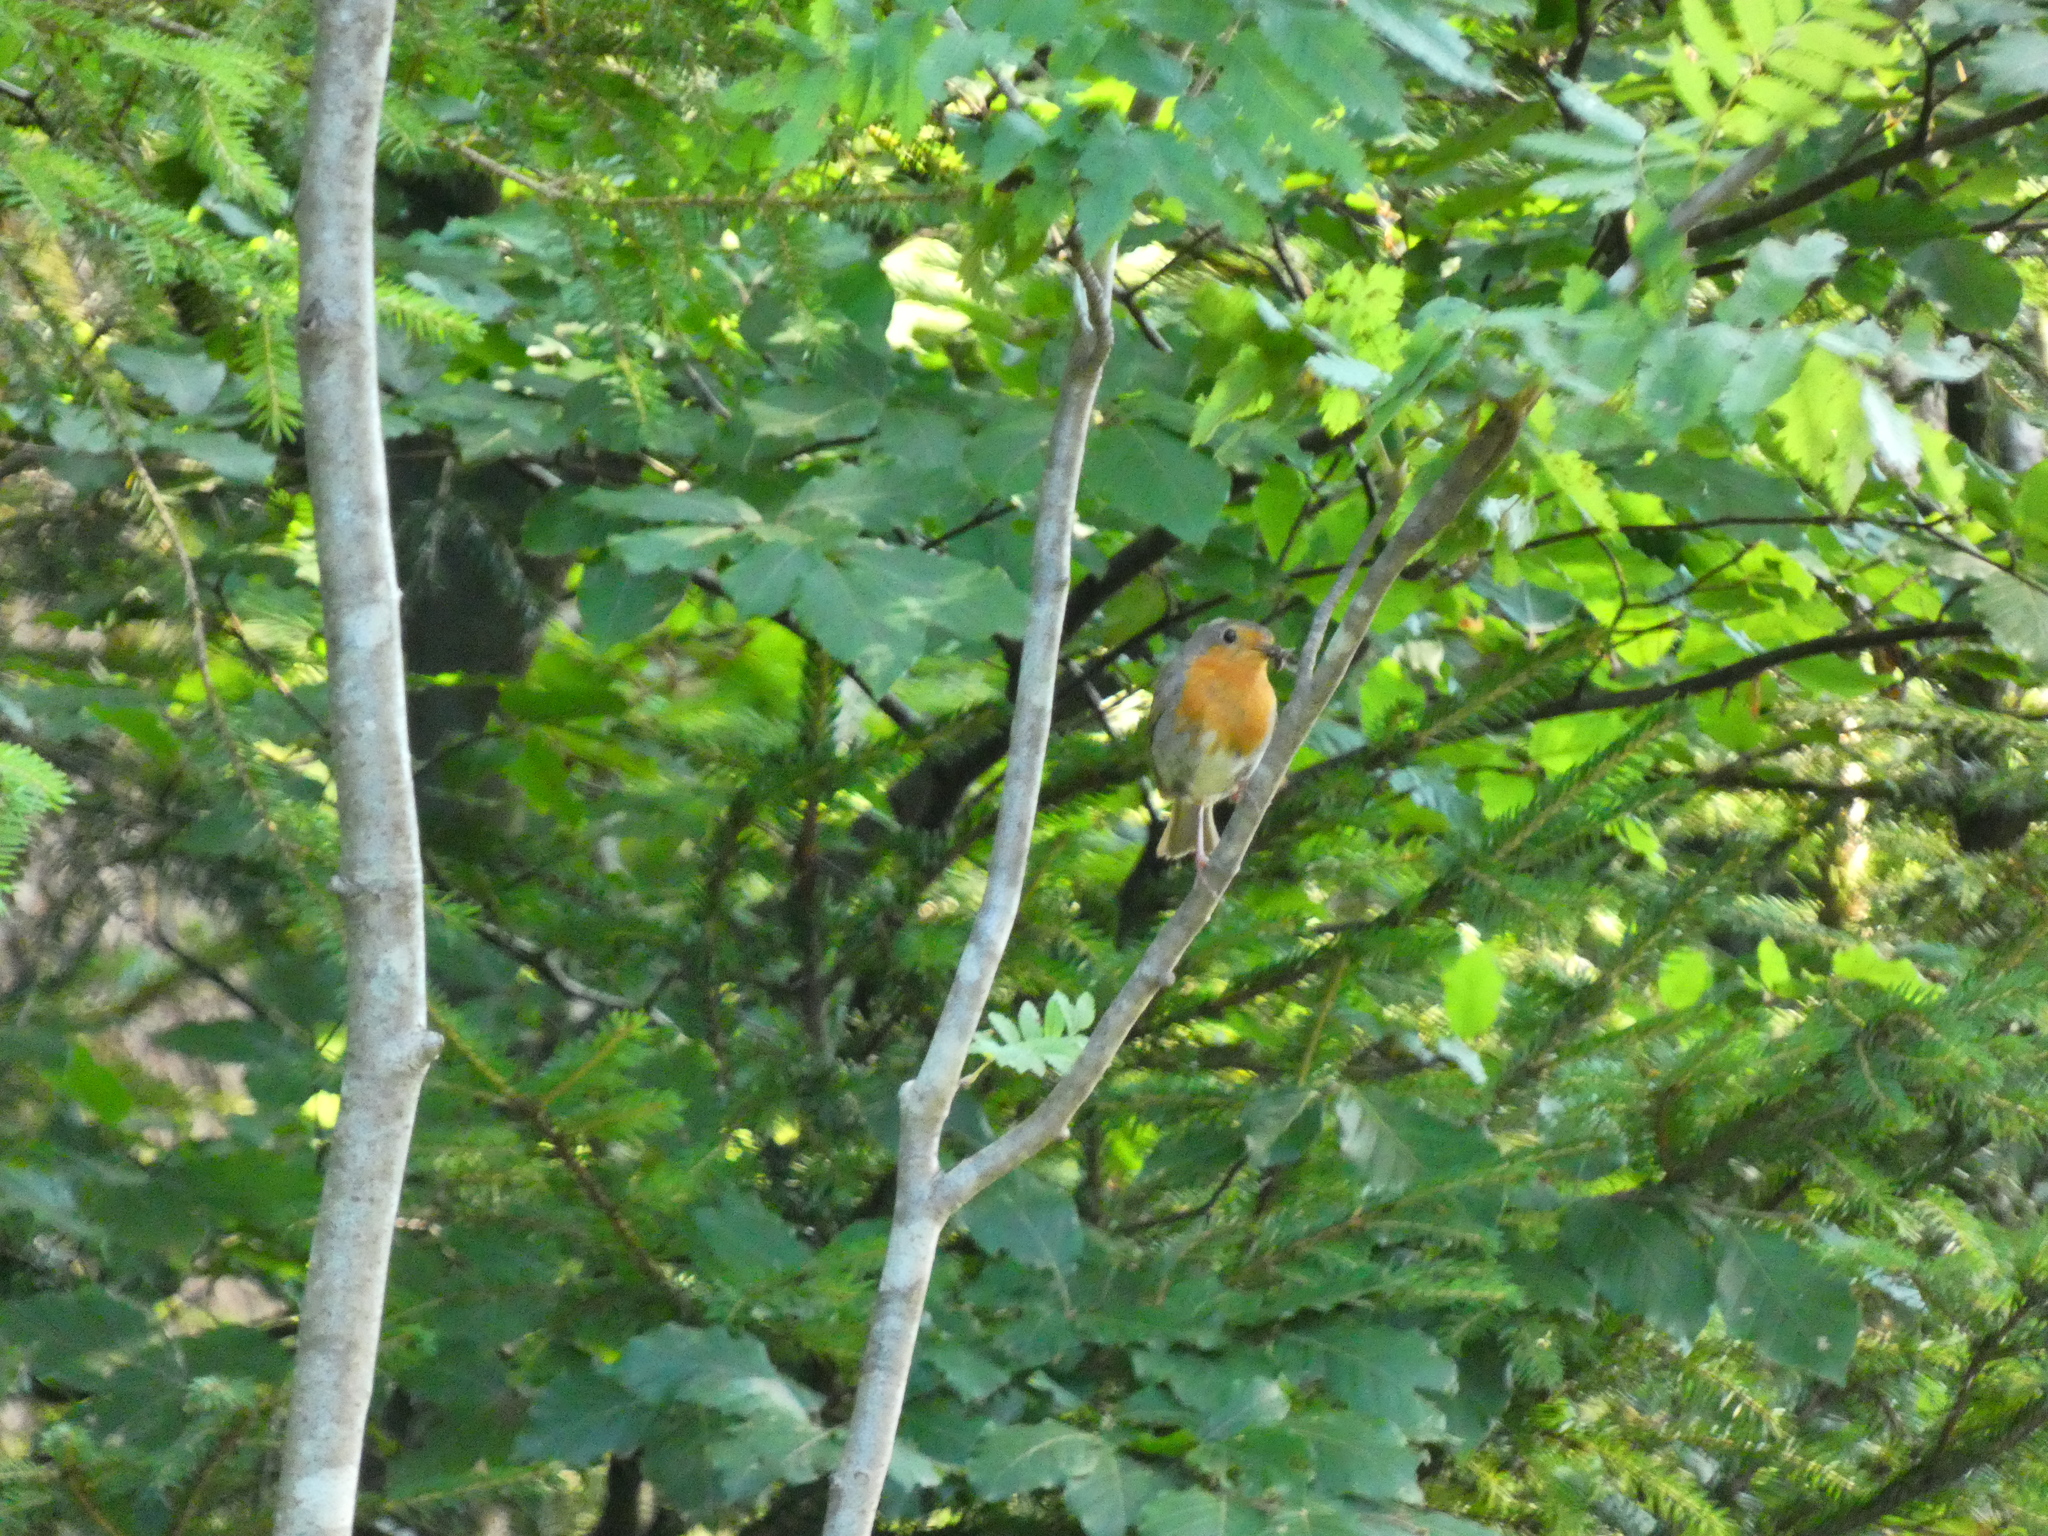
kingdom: Animalia
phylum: Chordata
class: Aves
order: Passeriformes
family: Muscicapidae
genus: Erithacus
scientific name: Erithacus rubecula
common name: European robin
